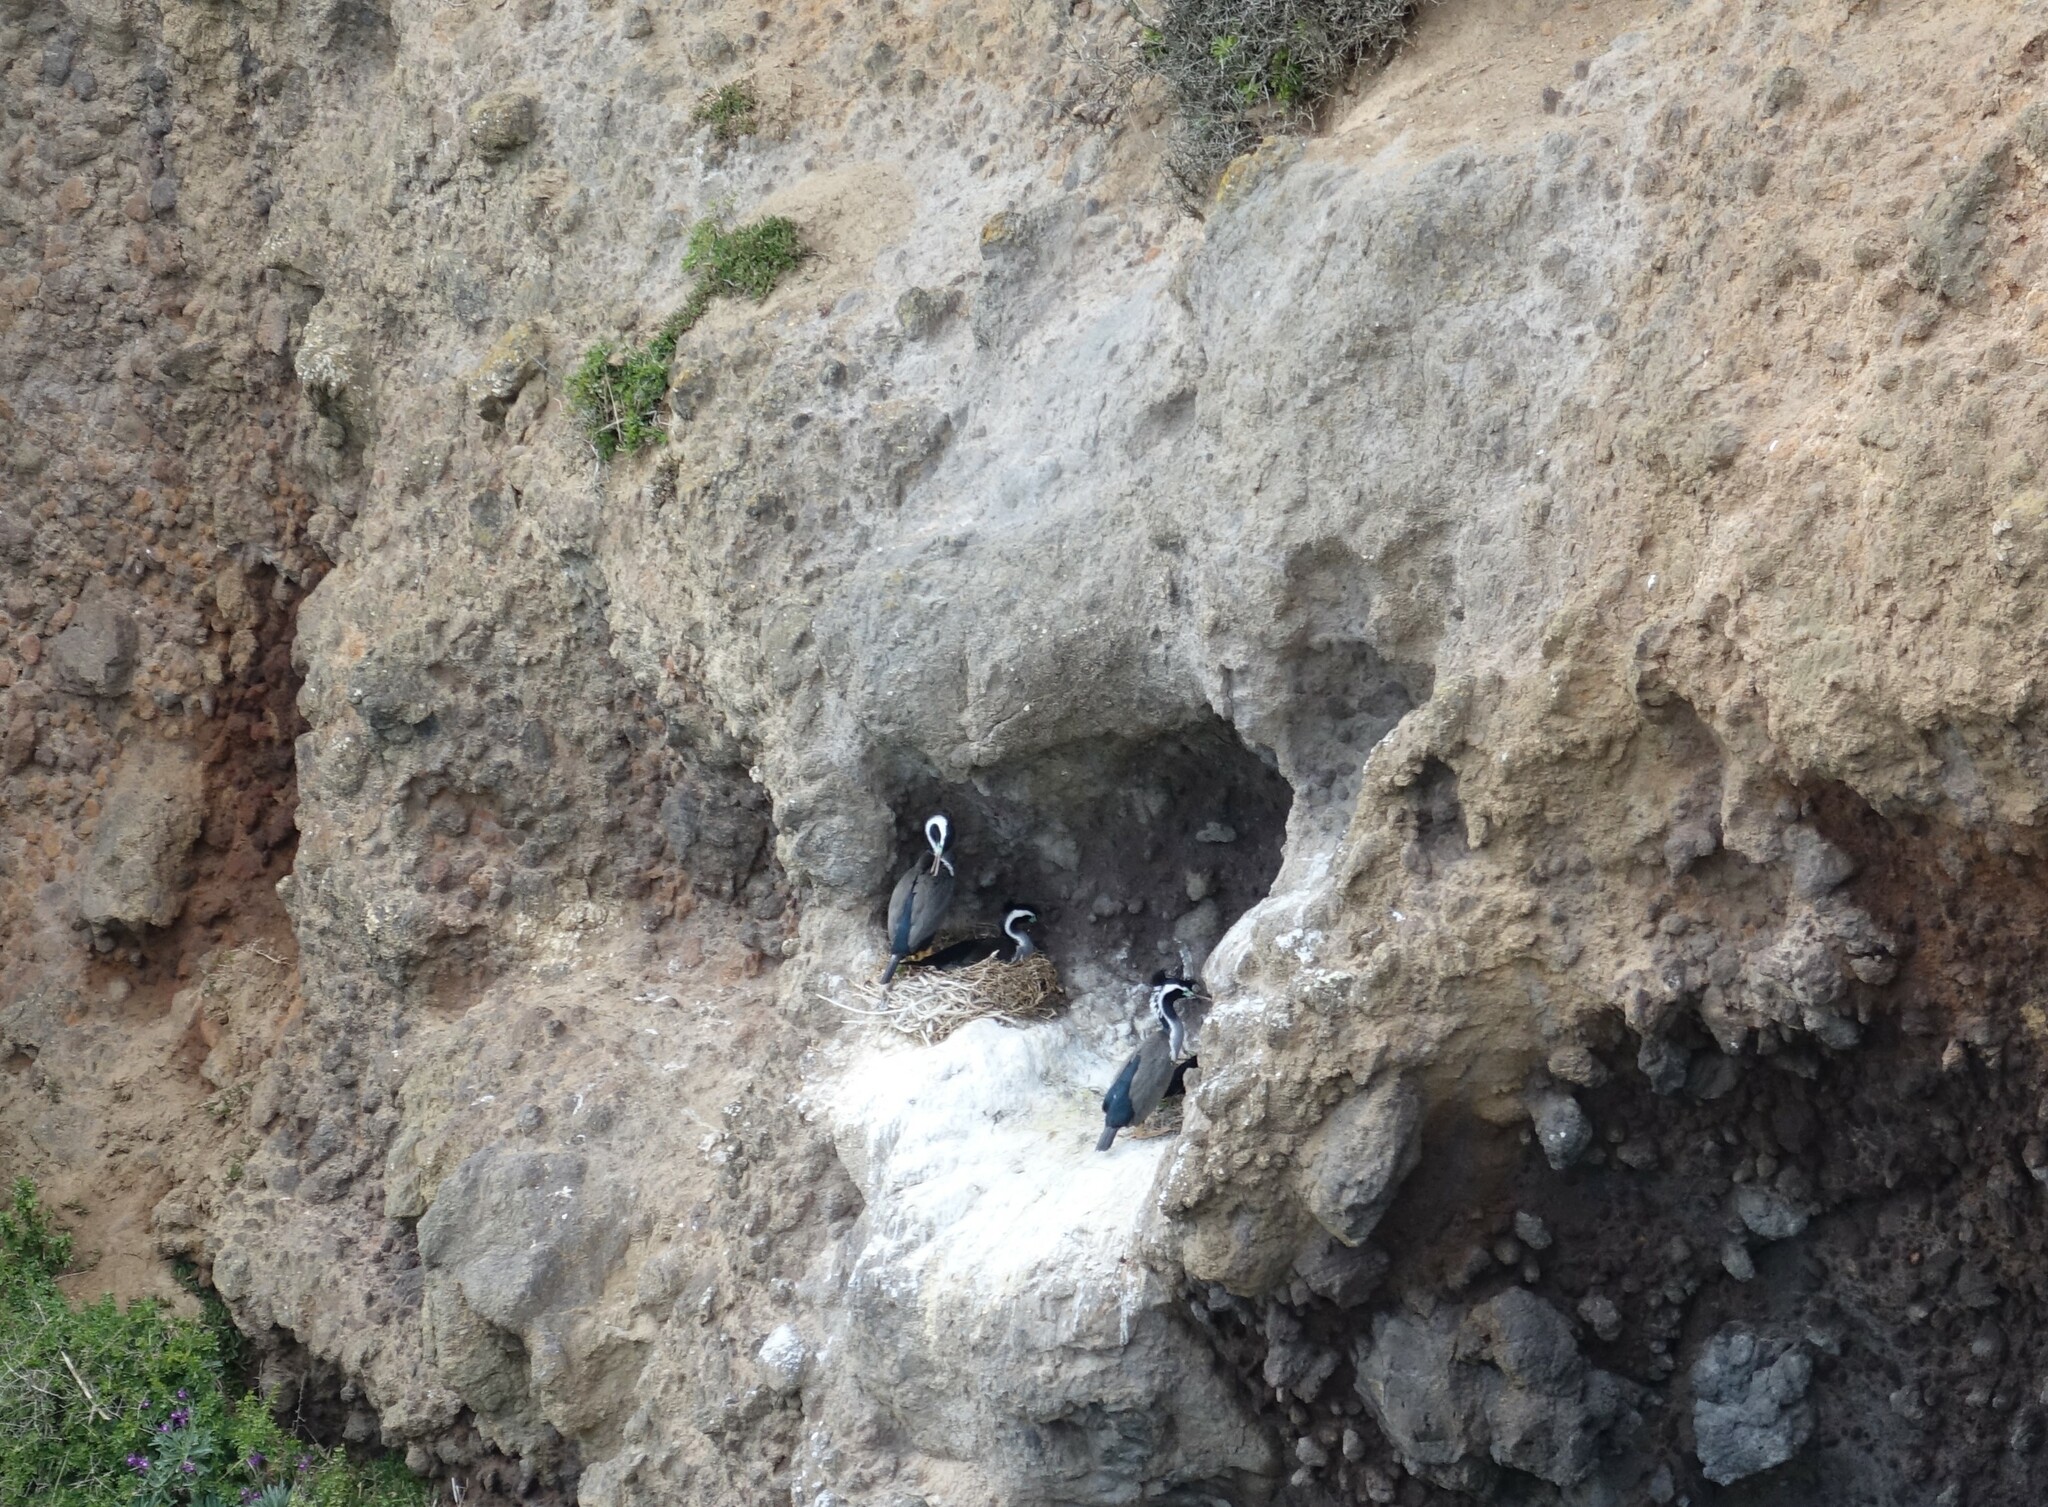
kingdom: Animalia
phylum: Chordata
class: Aves
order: Suliformes
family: Phalacrocoracidae
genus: Phalacrocorax
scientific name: Phalacrocorax punctatus
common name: Spotted shag
